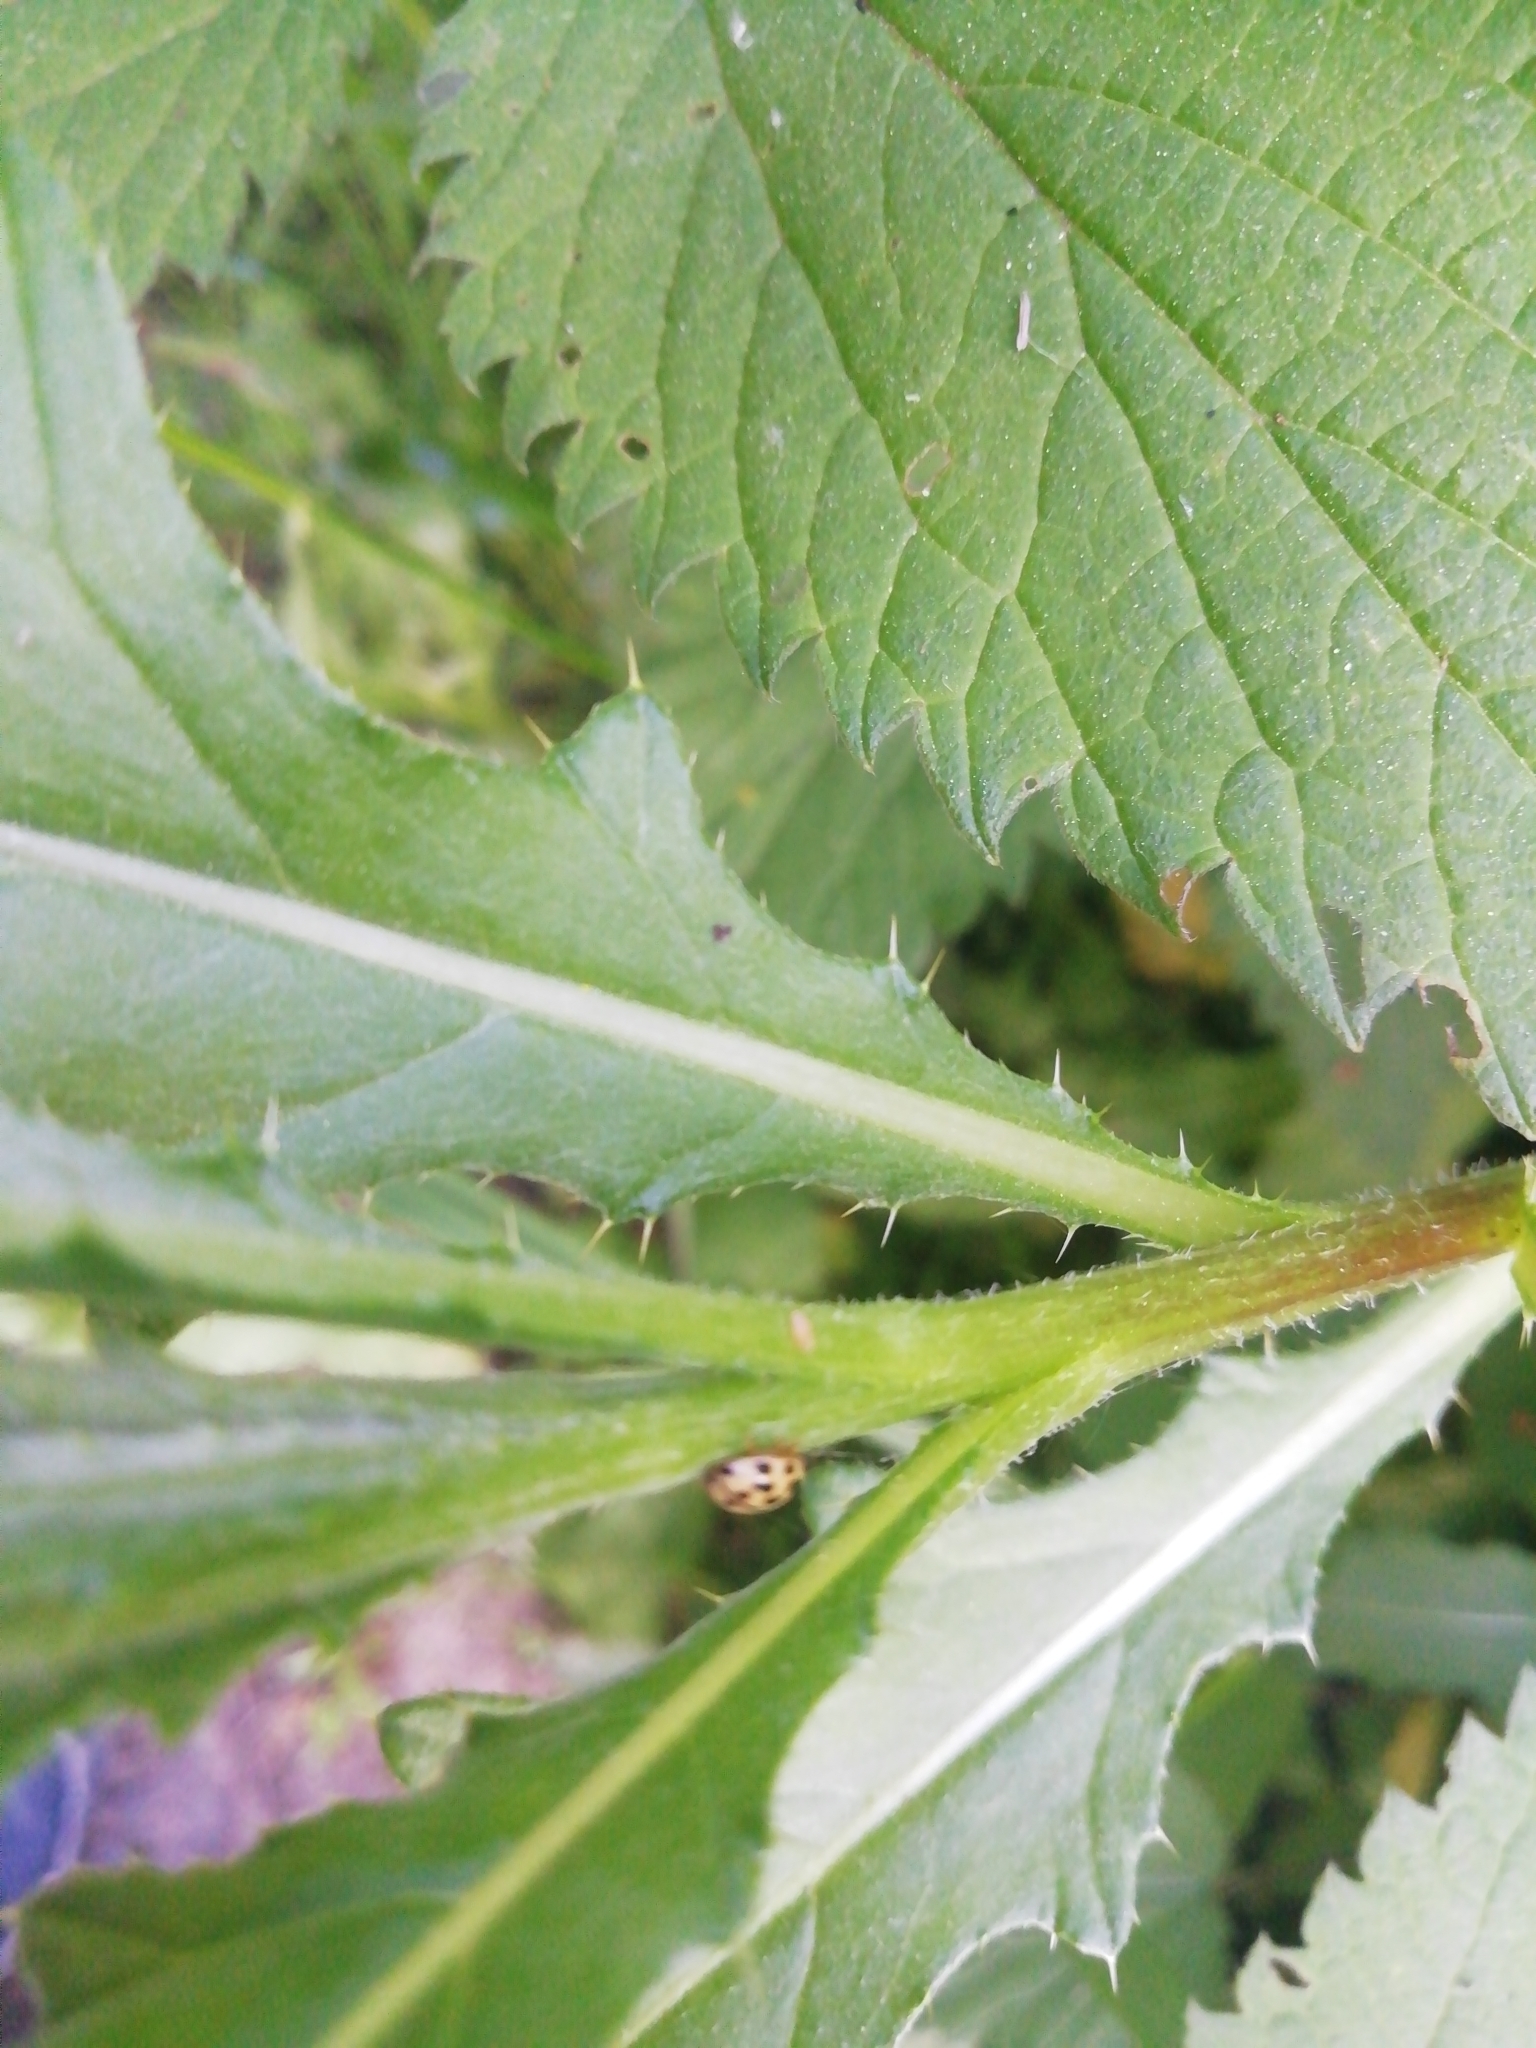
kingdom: Animalia
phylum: Arthropoda
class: Insecta
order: Coleoptera
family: Coccinellidae
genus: Propylaea
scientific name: Propylaea quatuordecimpunctata
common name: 14-spotted ladybird beetle
